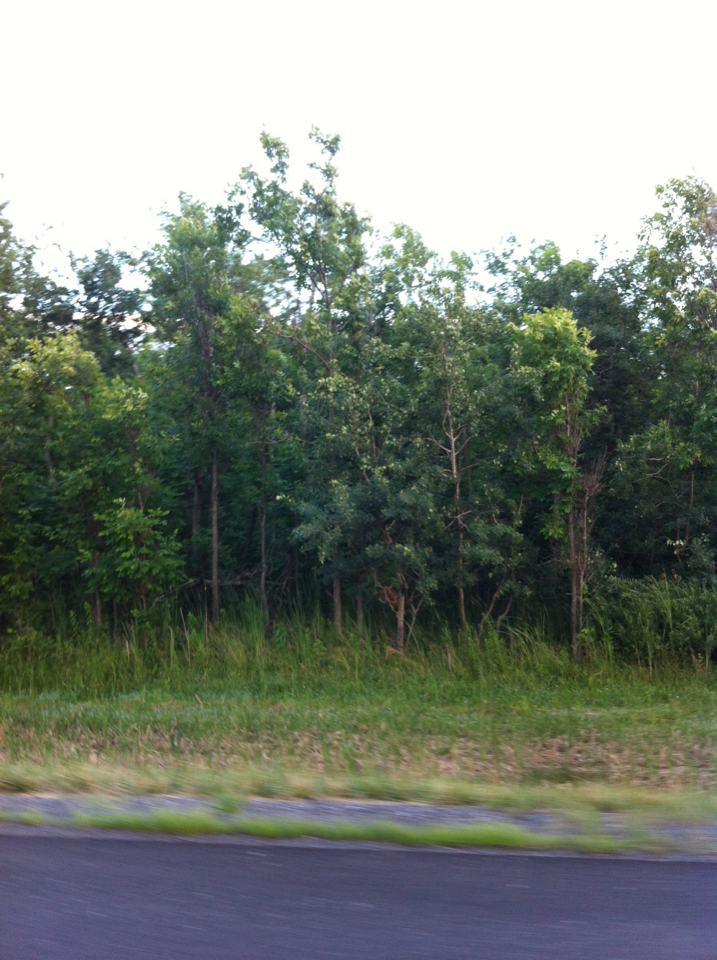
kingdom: Plantae
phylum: Tracheophyta
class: Magnoliopsida
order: Malpighiales
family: Salicaceae
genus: Populus
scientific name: Populus tremuloides
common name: Quaking aspen
